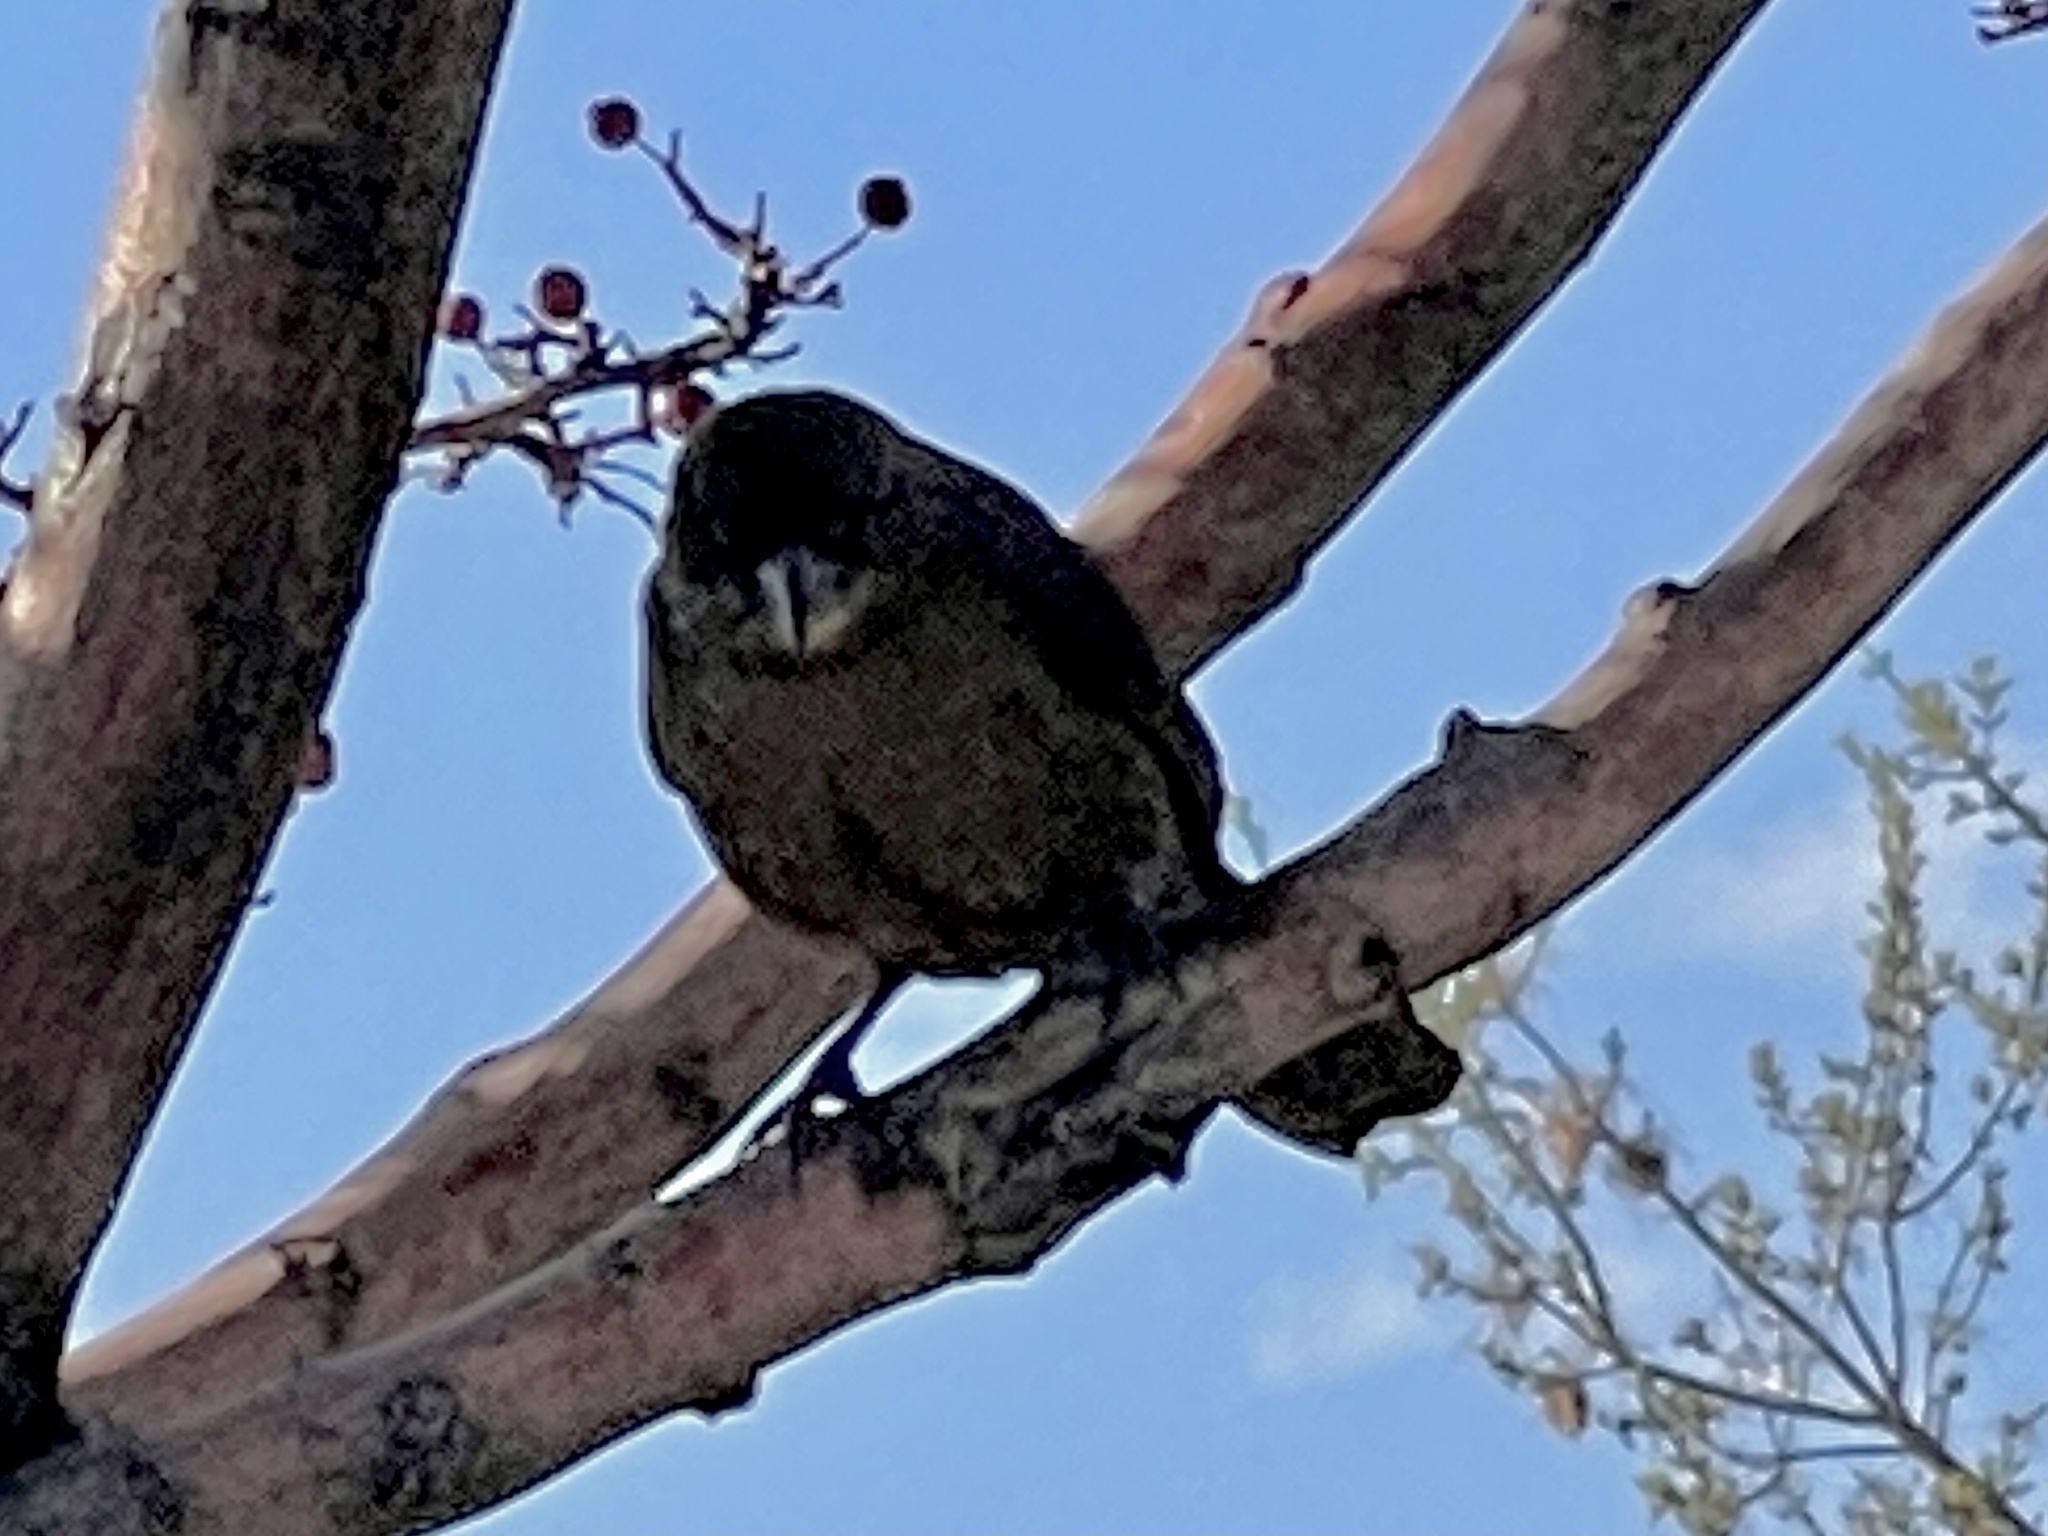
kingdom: Animalia
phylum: Chordata
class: Aves
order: Passeriformes
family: Icteridae
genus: Quiscalus
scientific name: Quiscalus mexicanus
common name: Great-tailed grackle
